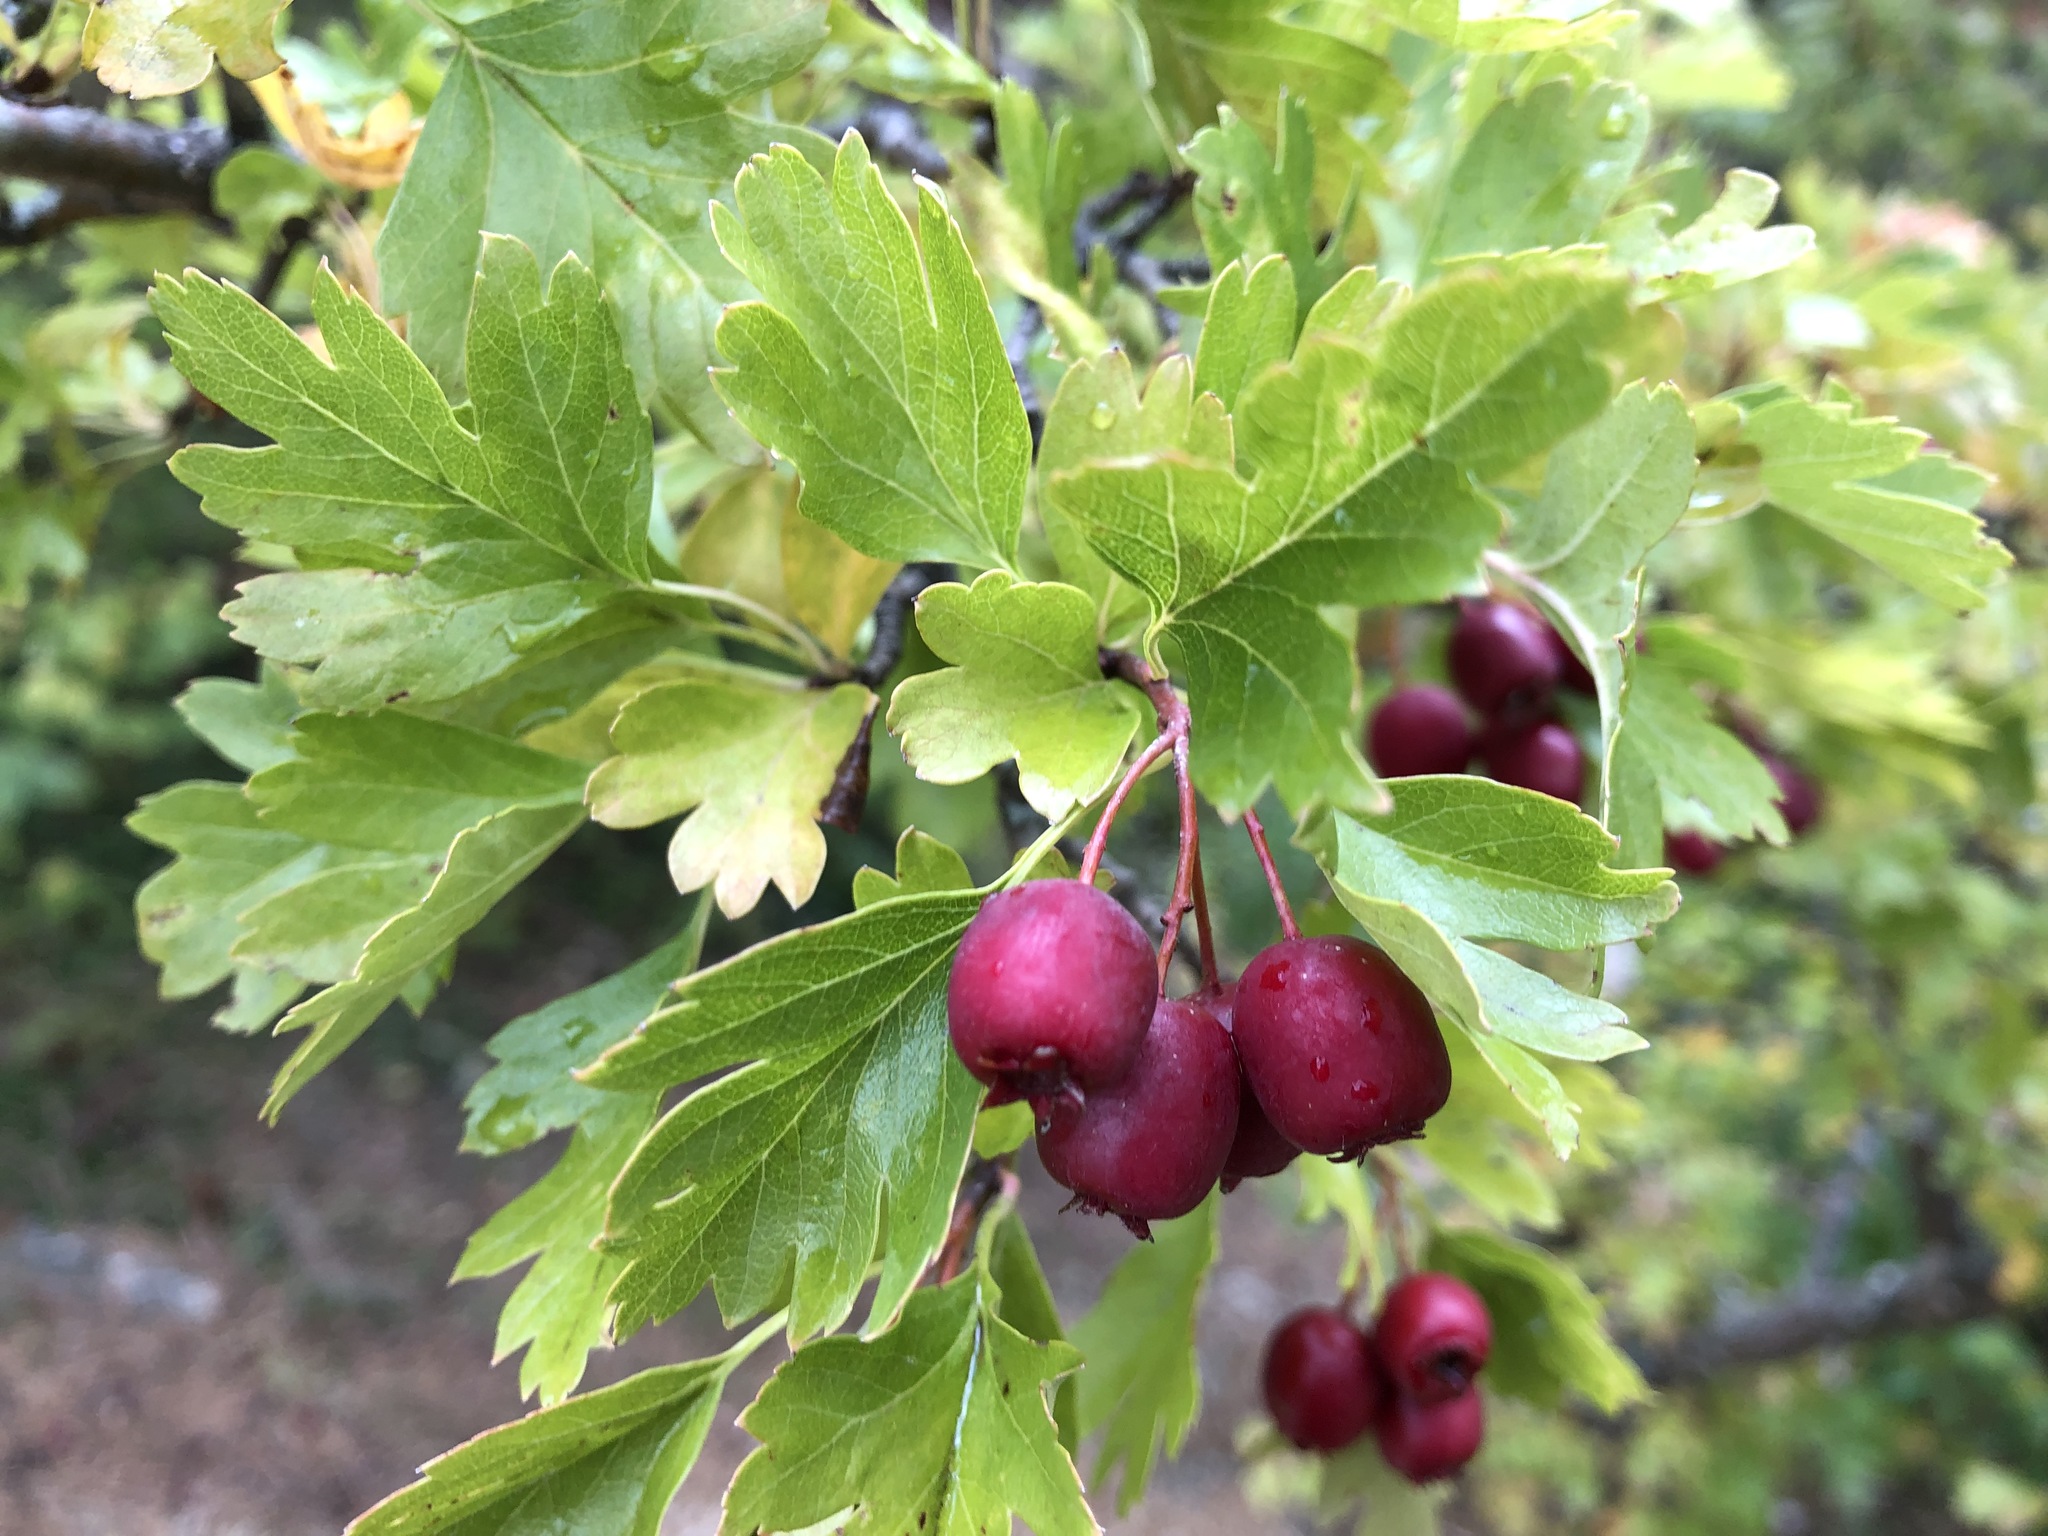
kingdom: Plantae
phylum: Tracheophyta
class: Magnoliopsida
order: Rosales
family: Rosaceae
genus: Crataegus
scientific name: Crataegus monogyna
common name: Hawthorn
